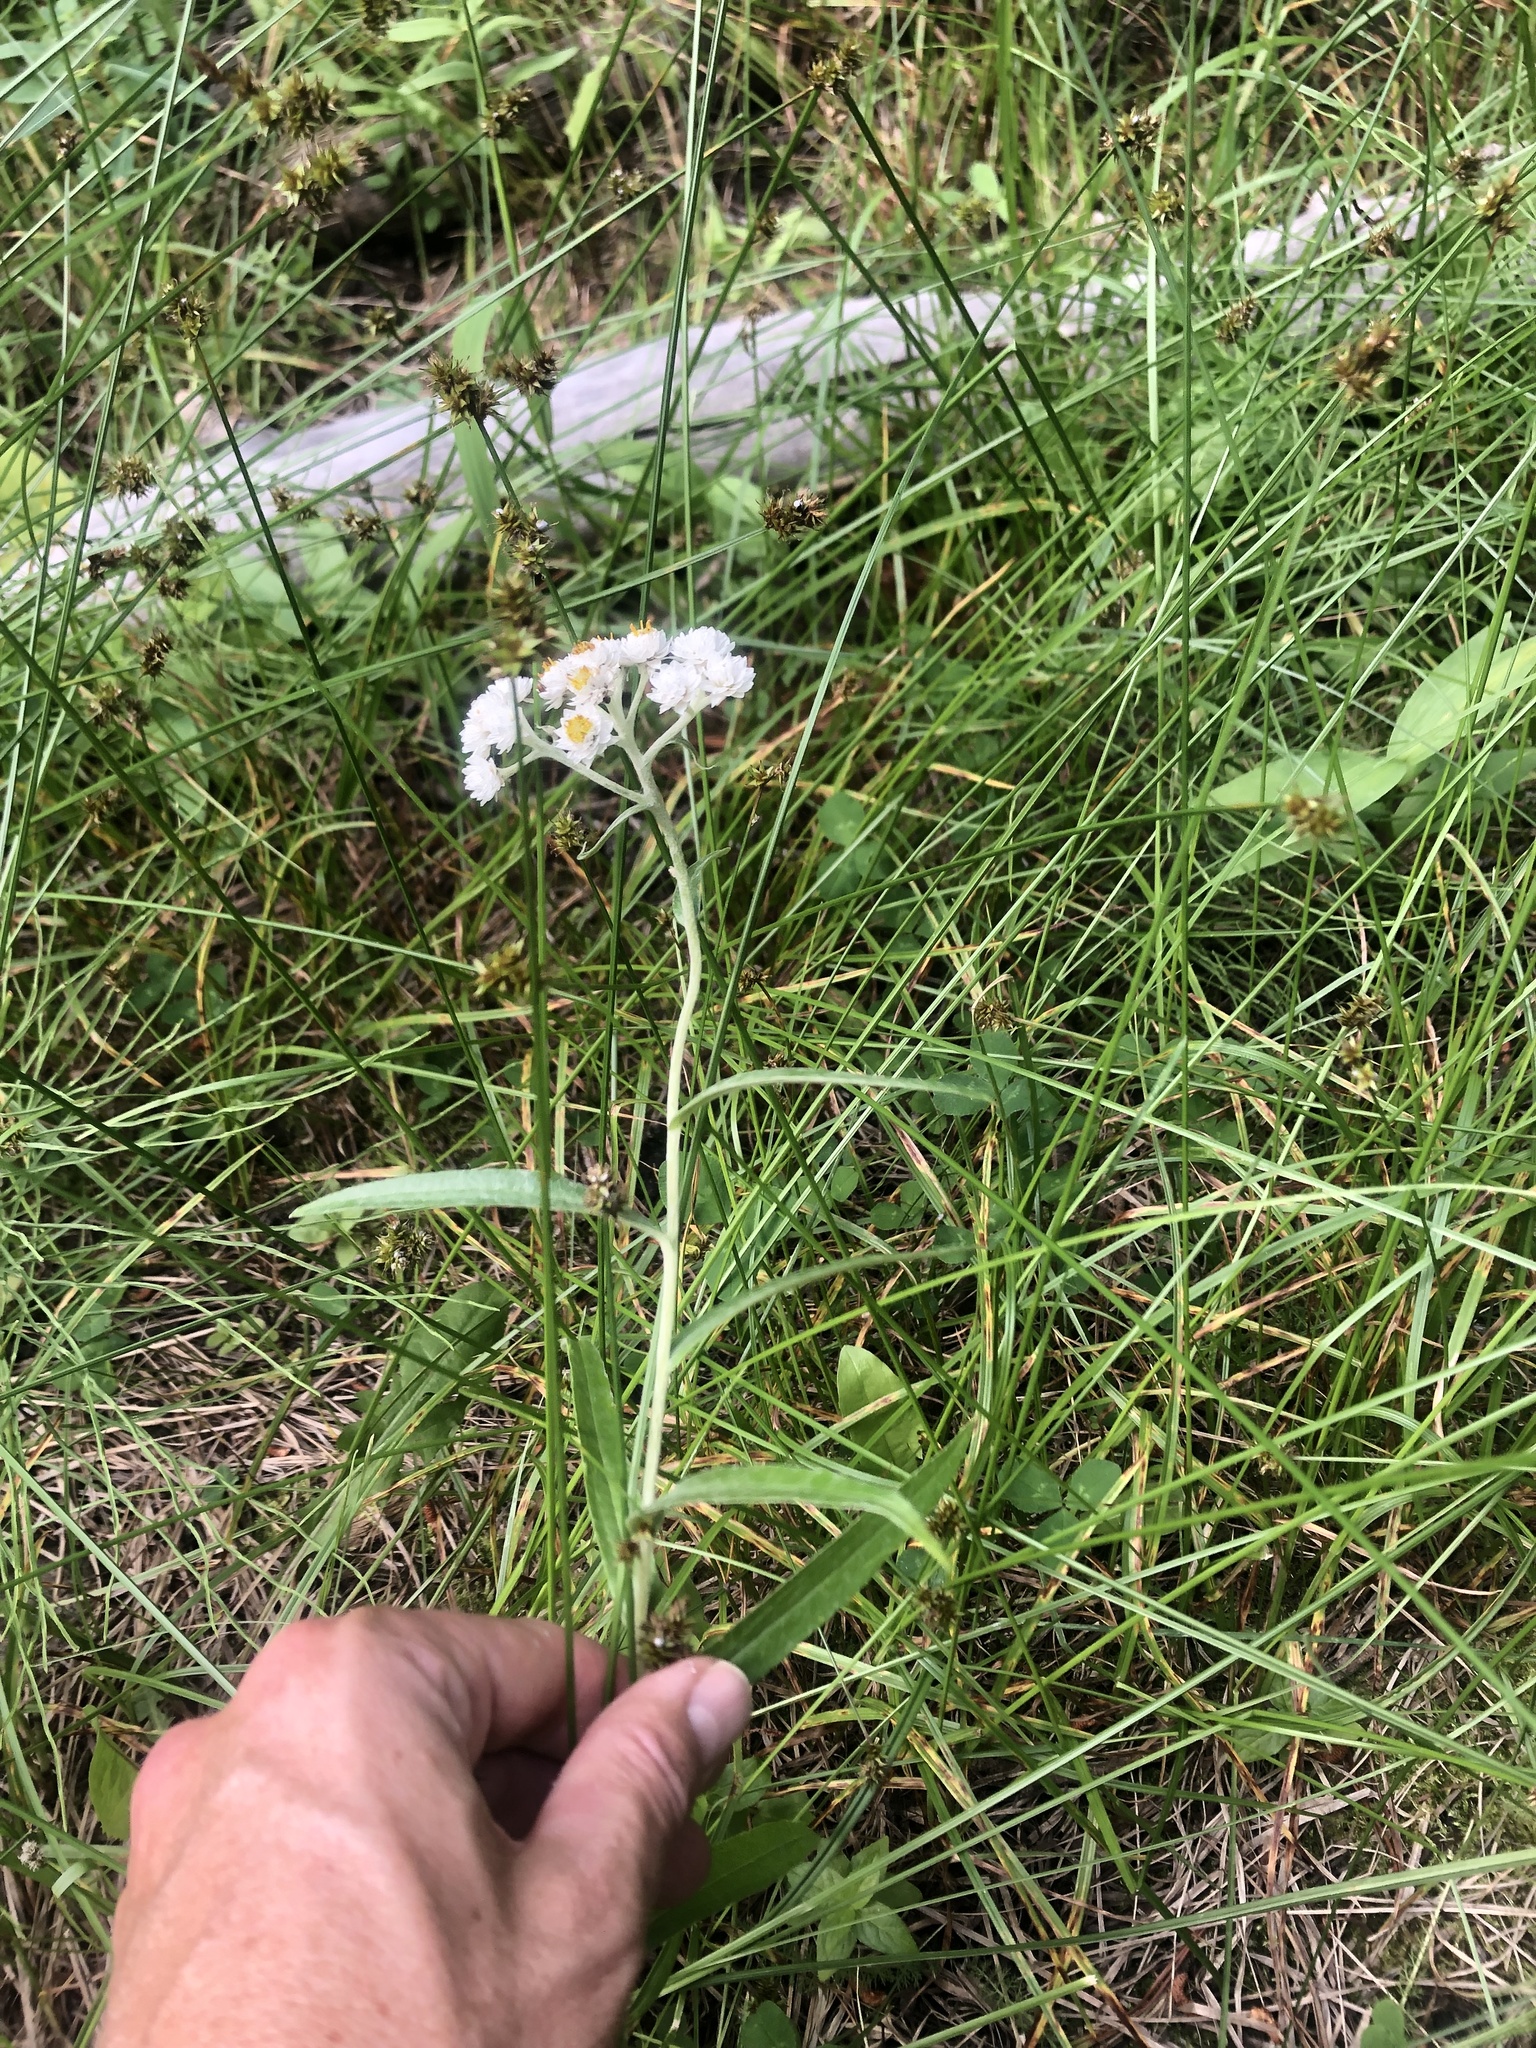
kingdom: Plantae
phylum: Tracheophyta
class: Magnoliopsida
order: Asterales
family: Asteraceae
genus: Anaphalis
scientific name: Anaphalis margaritacea
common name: Pearly everlasting
